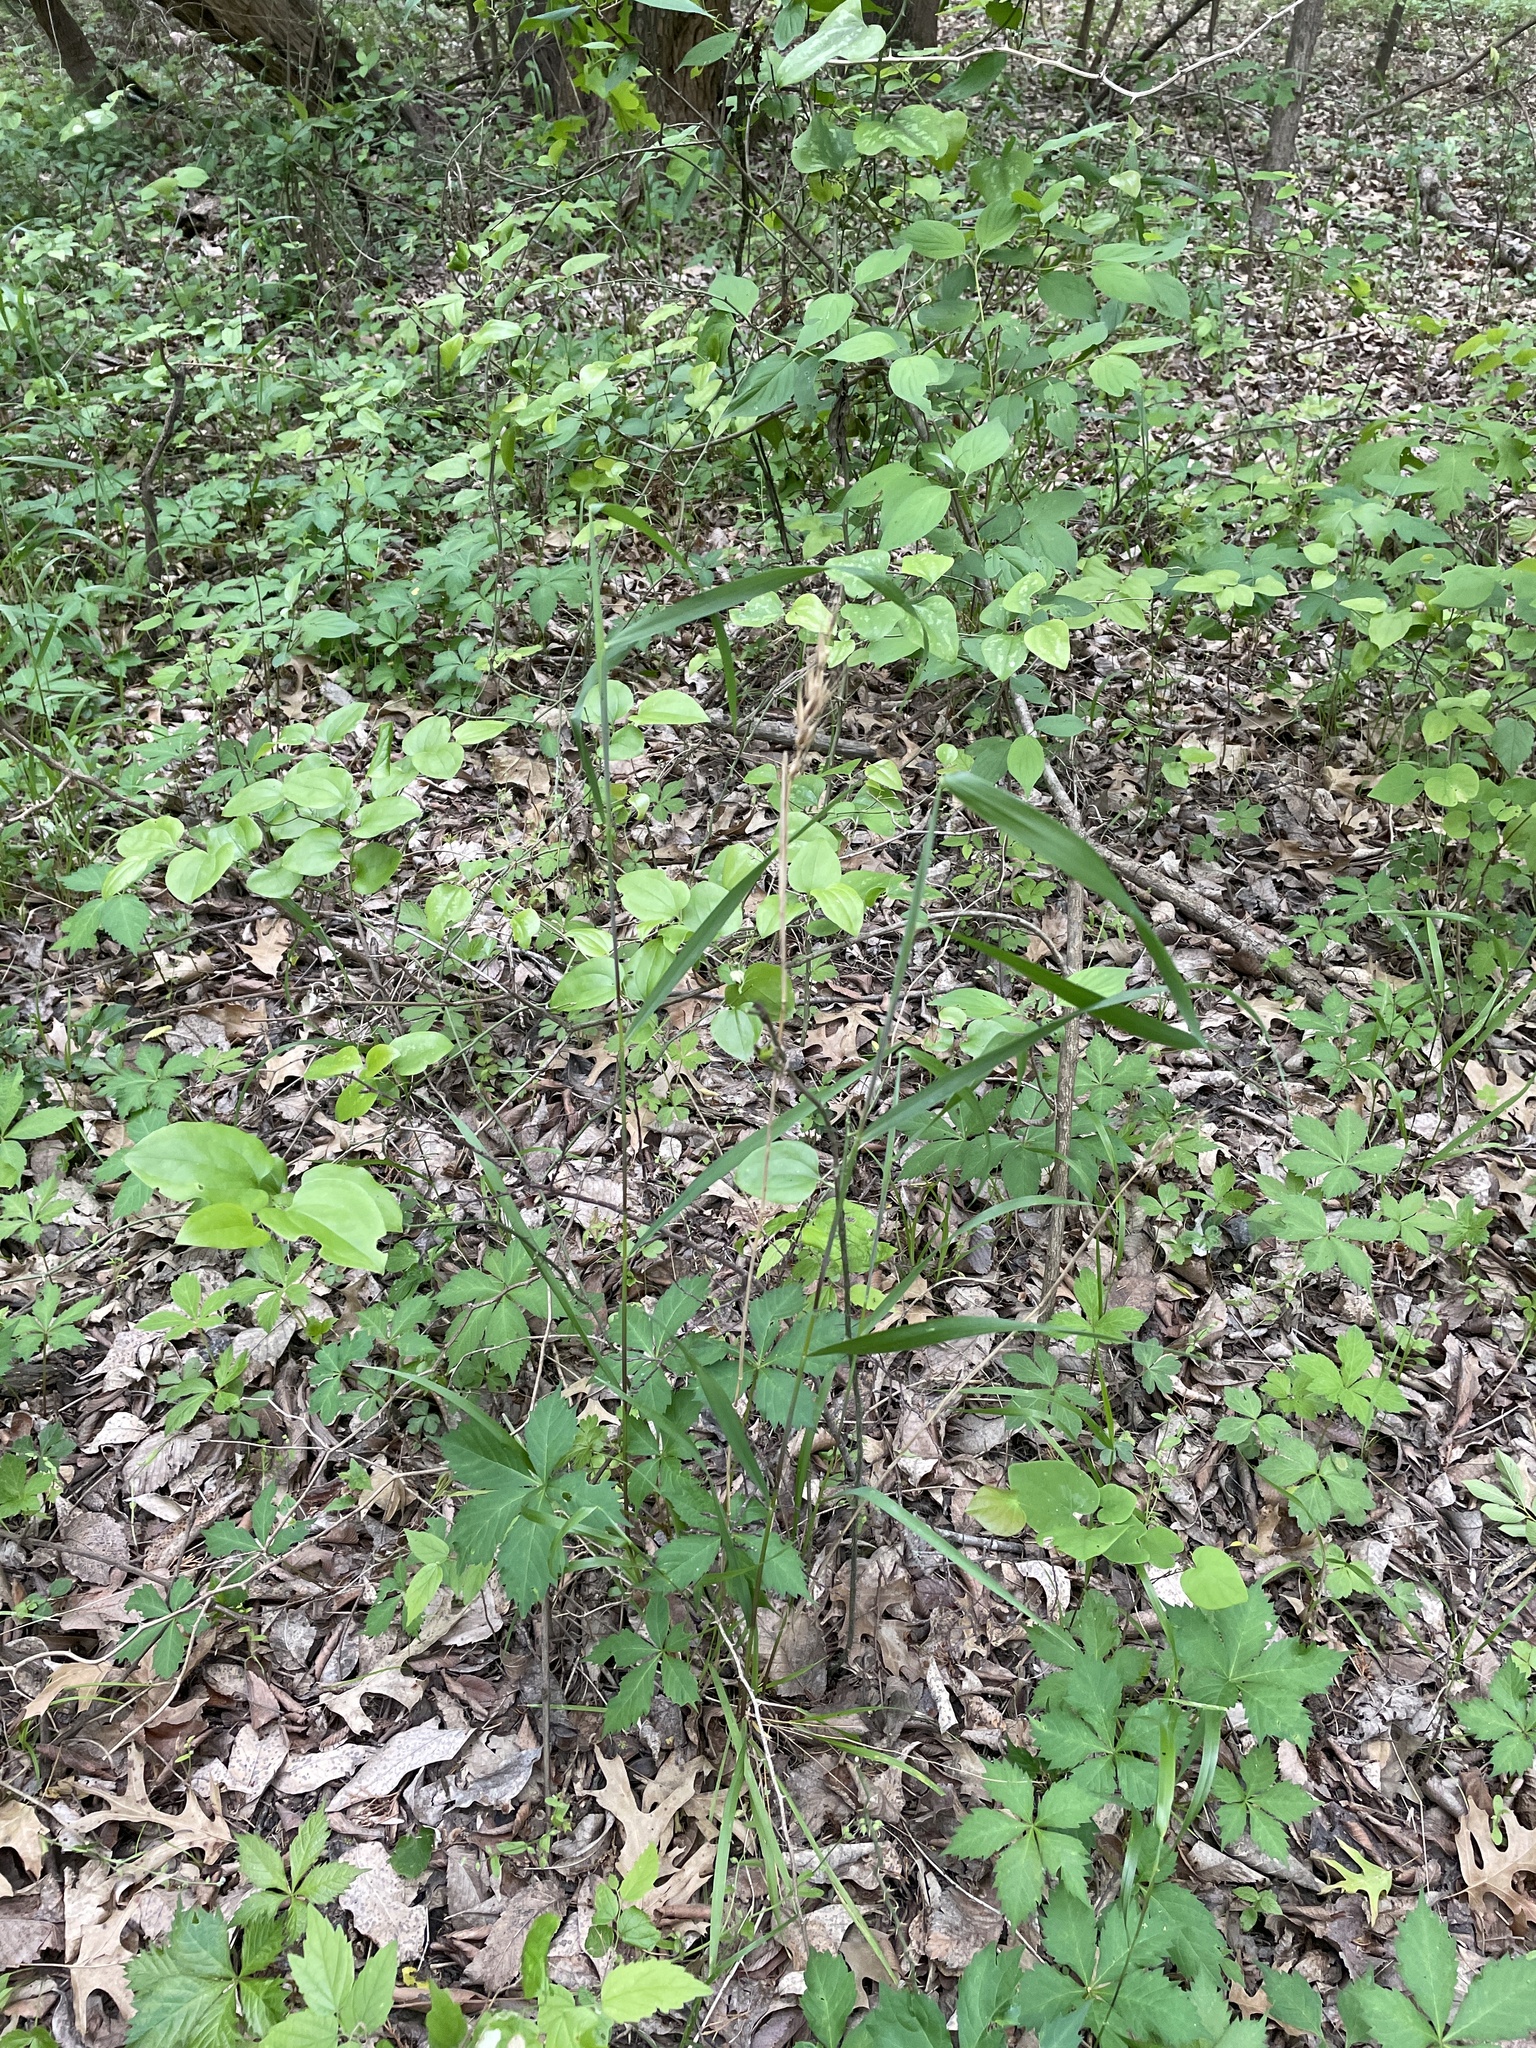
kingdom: Plantae
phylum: Tracheophyta
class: Liliopsida
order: Poales
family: Poaceae
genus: Elymus
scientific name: Elymus virginicus
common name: Common eastern wildrye
